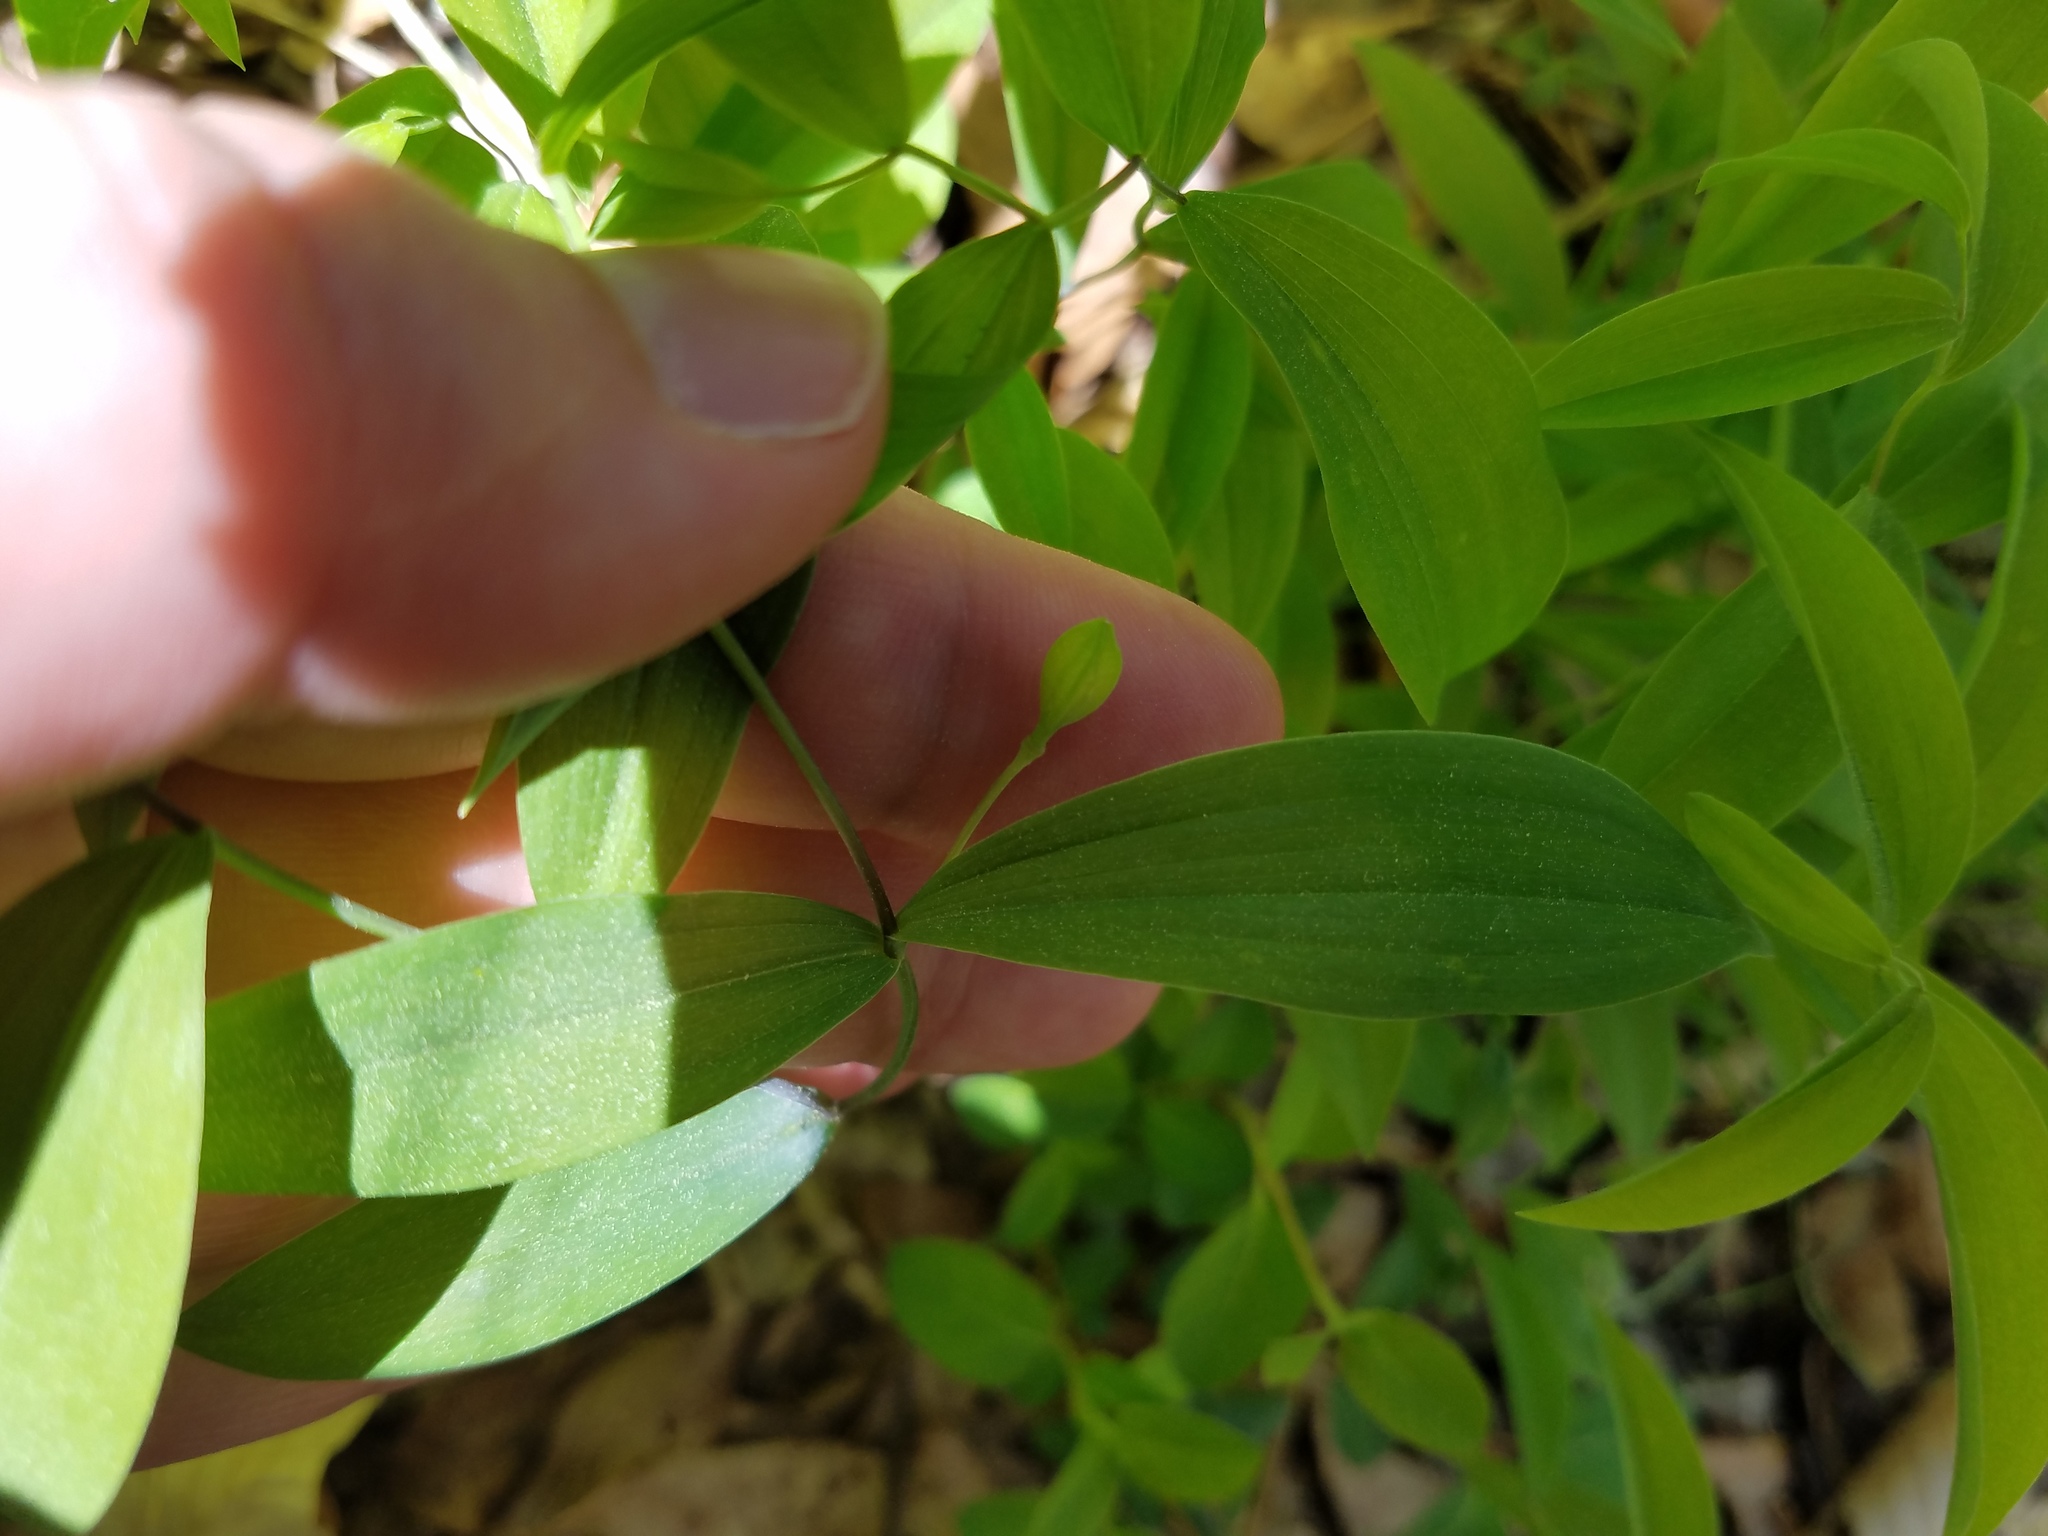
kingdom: Plantae
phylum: Tracheophyta
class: Liliopsida
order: Liliales
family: Colchicaceae
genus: Uvularia
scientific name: Uvularia sessilifolia
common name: Straw-lily
